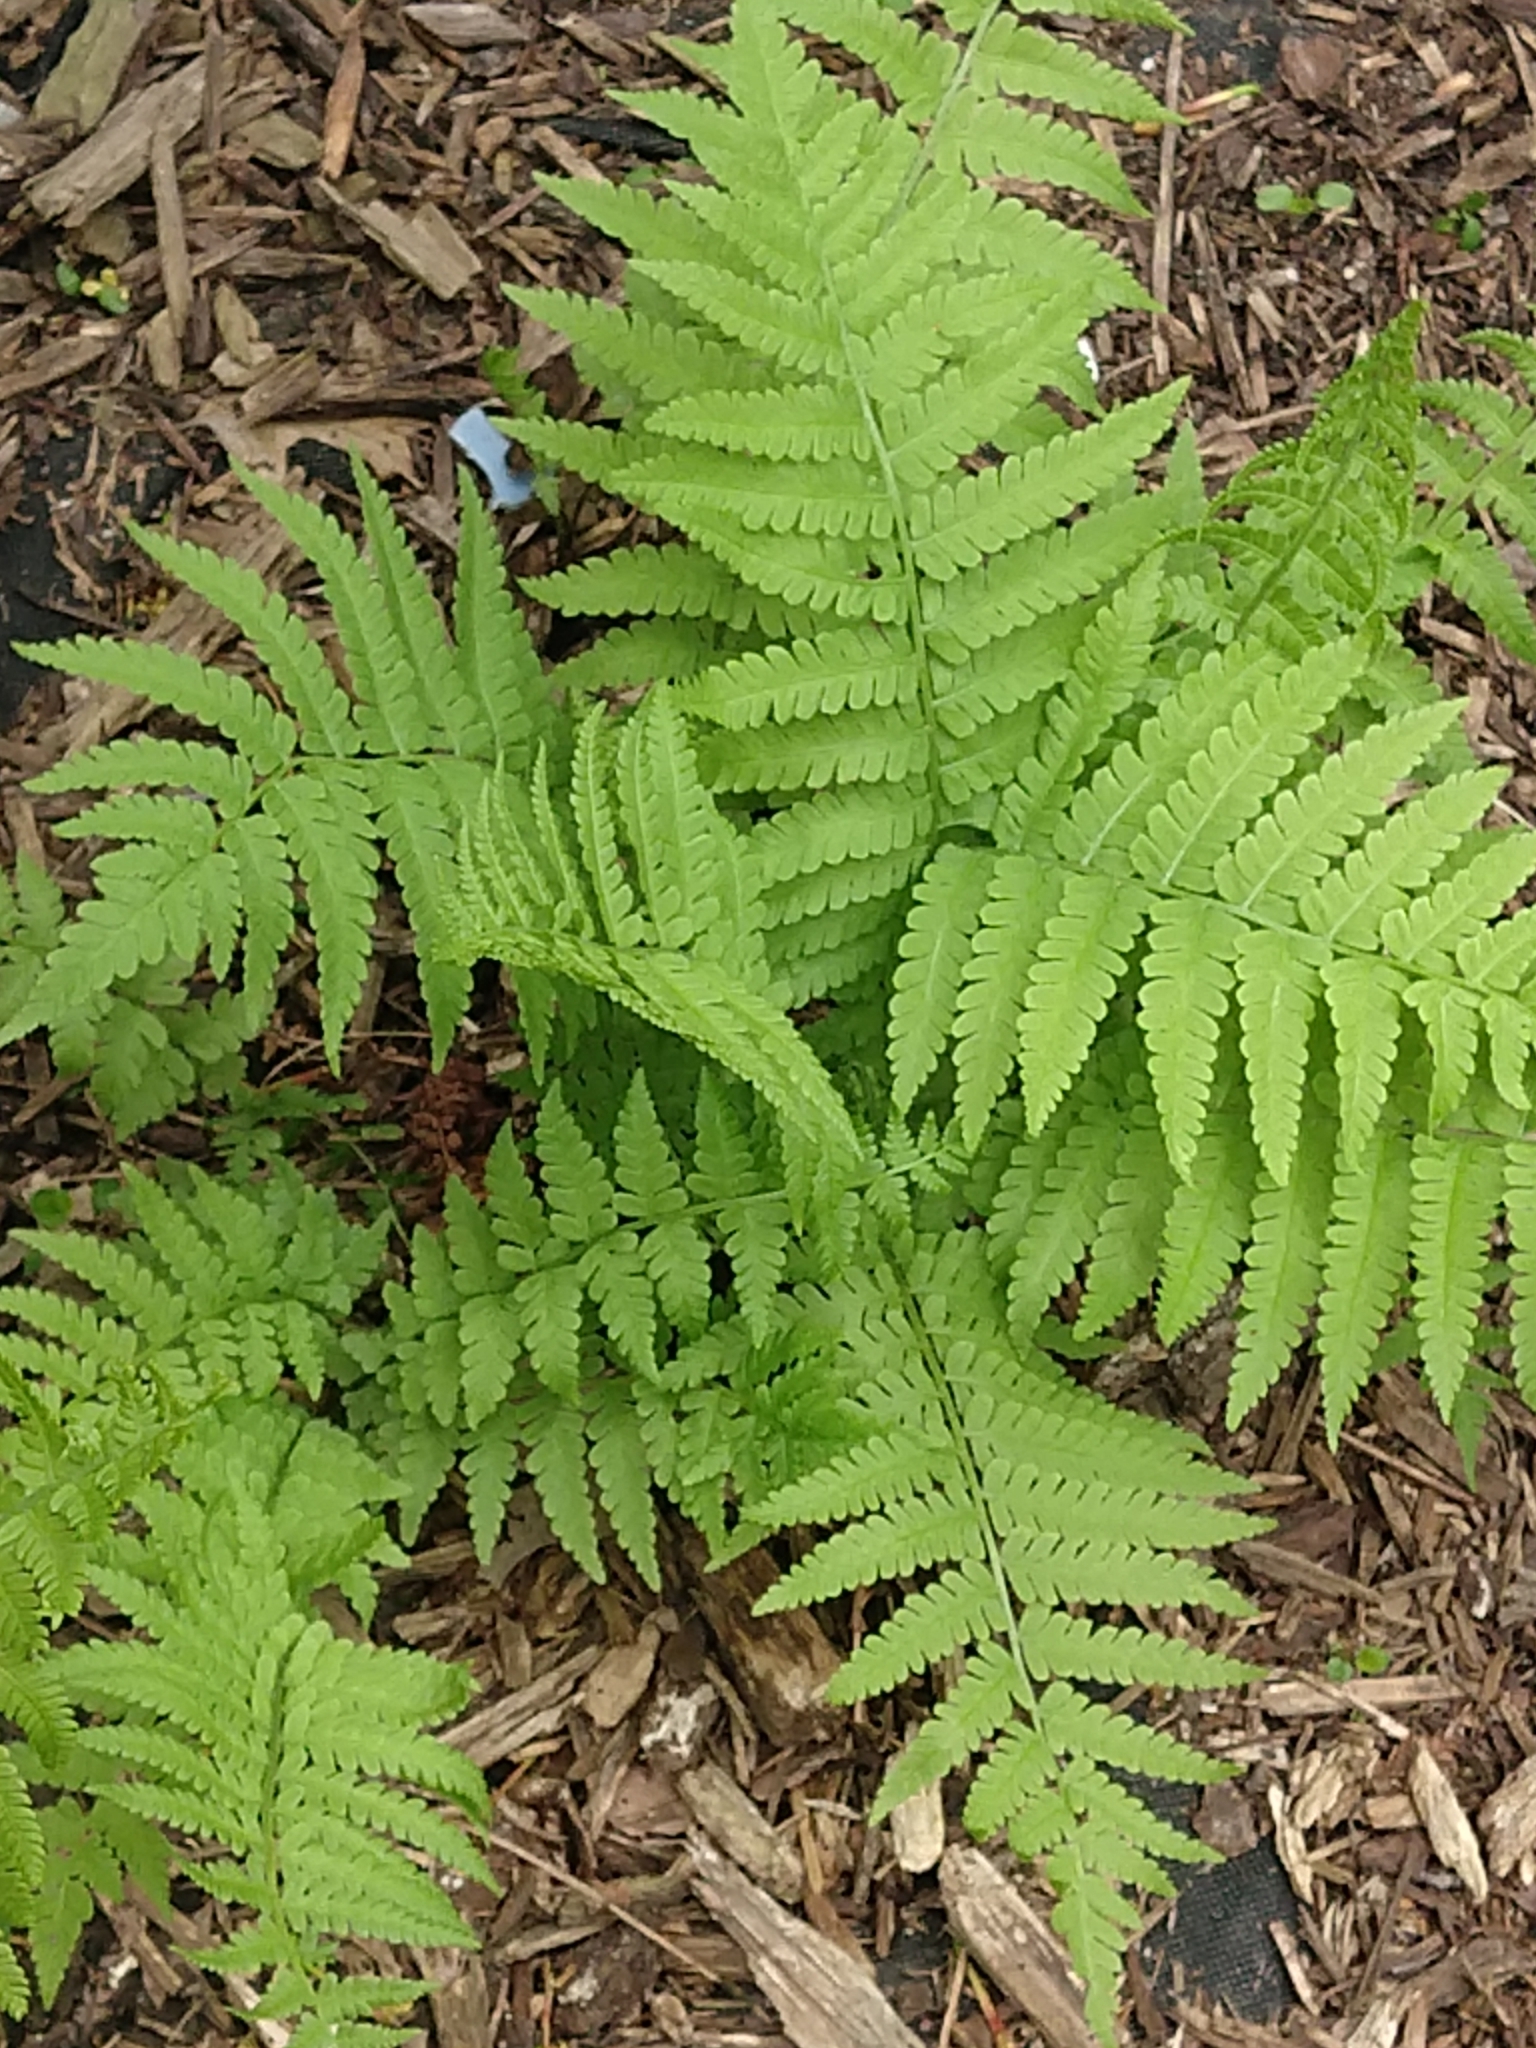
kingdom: Plantae
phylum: Tracheophyta
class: Polypodiopsida
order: Polypodiales
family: Onocleaceae
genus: Matteuccia
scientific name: Matteuccia struthiopteris
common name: Ostrich fern
